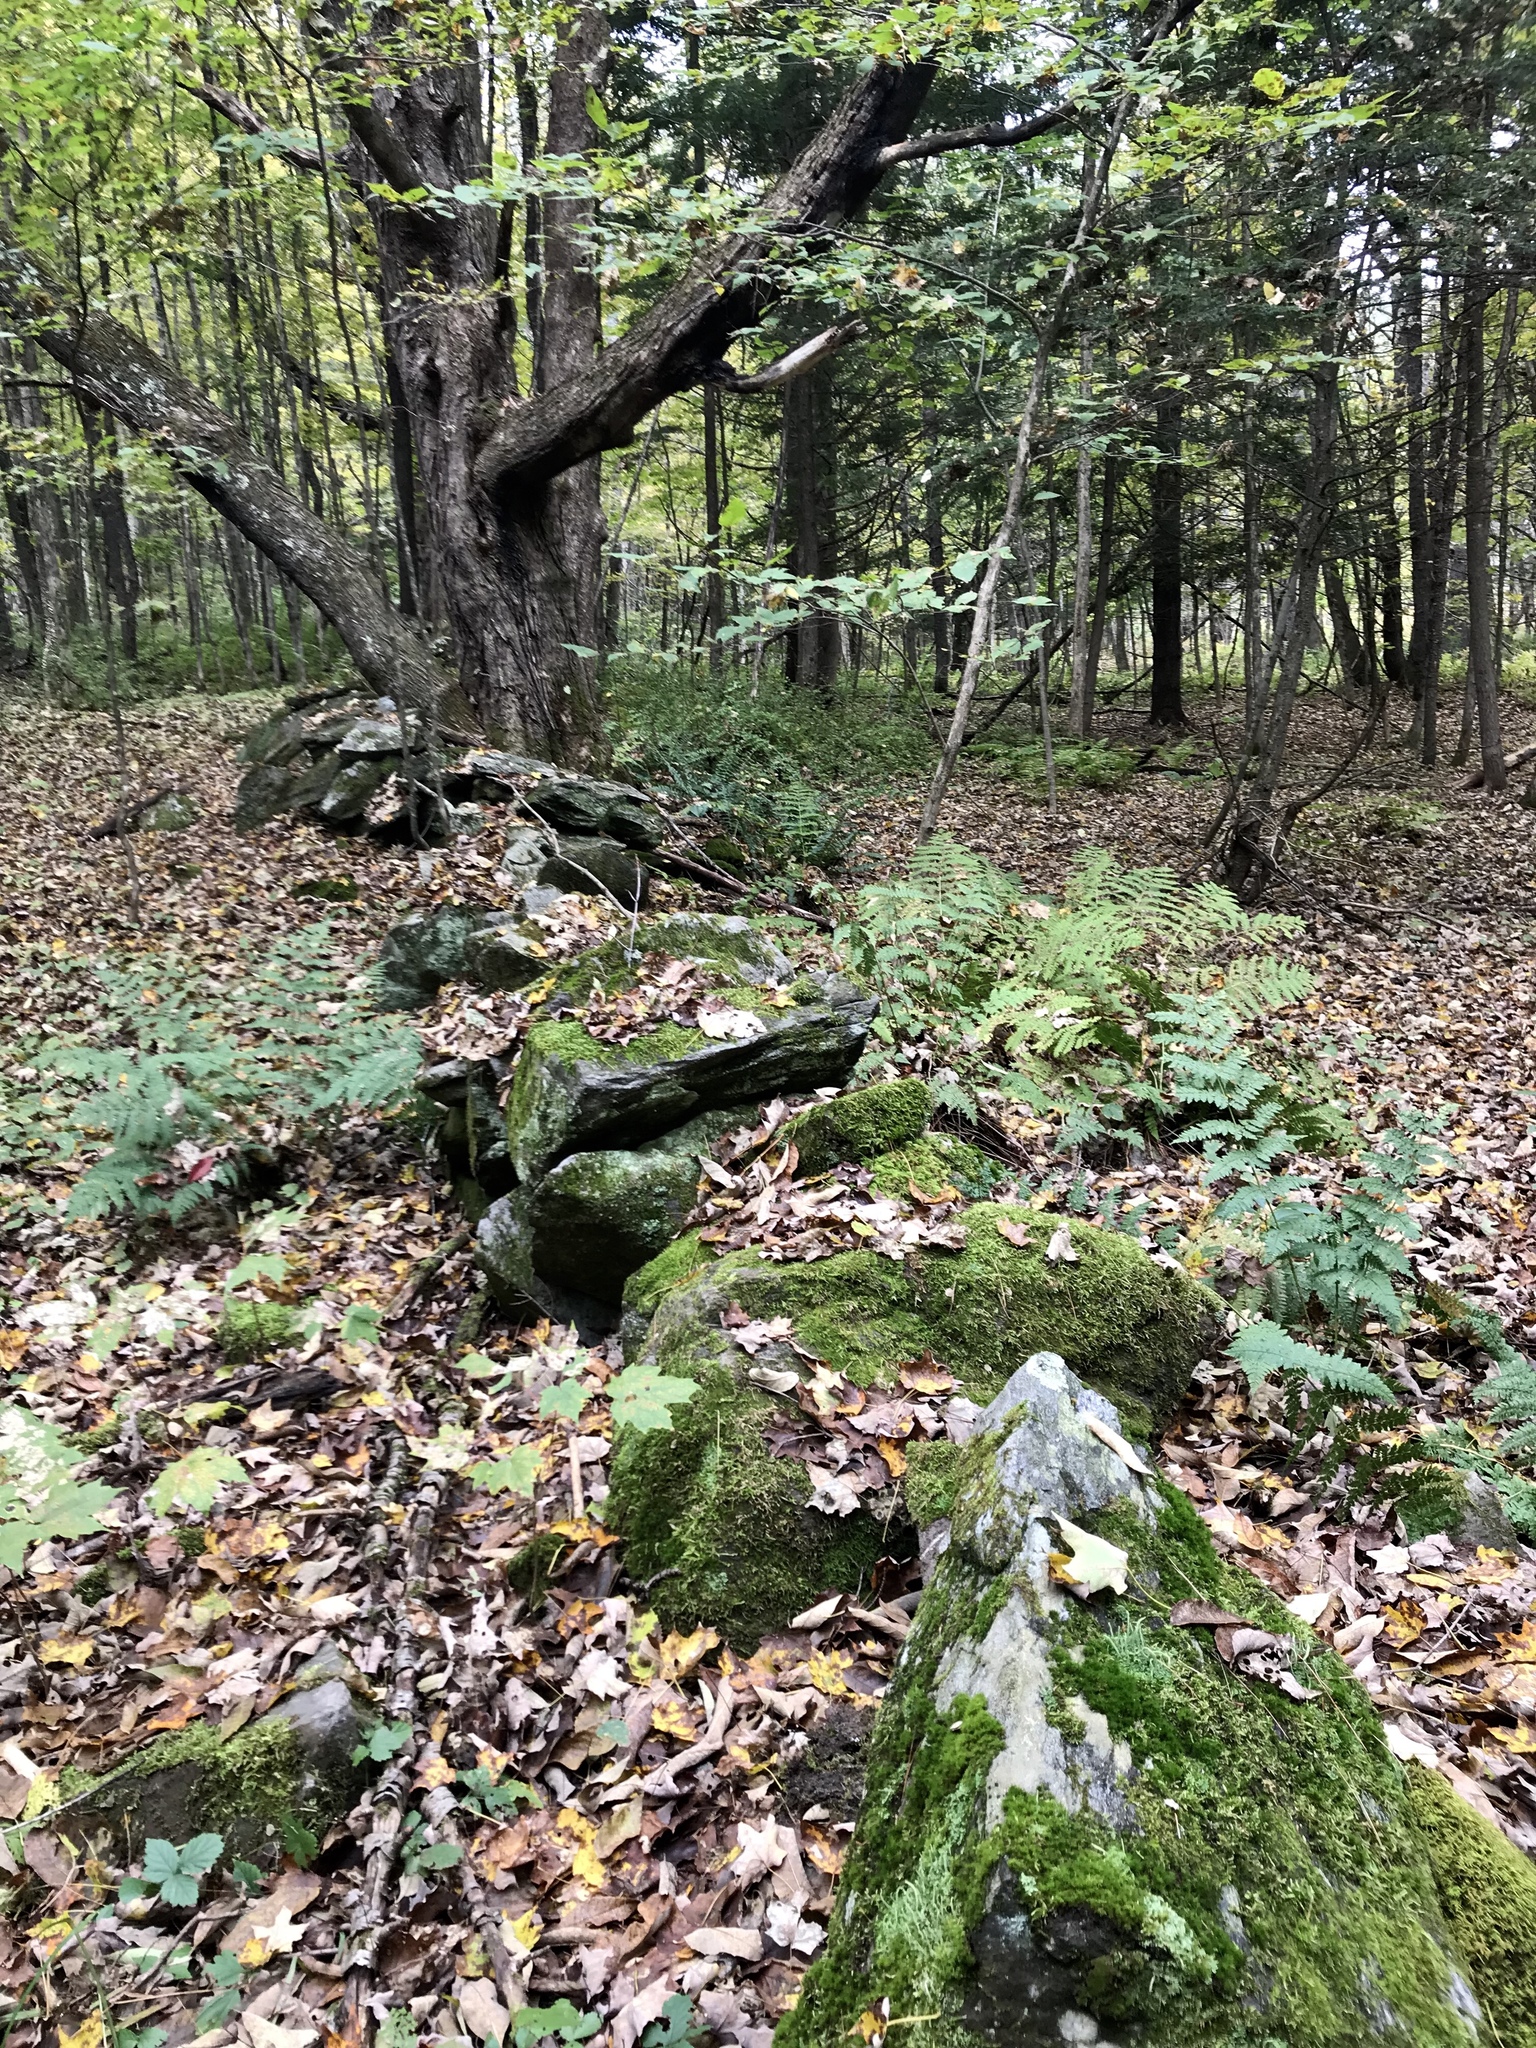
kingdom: Plantae
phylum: Tracheophyta
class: Magnoliopsida
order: Sapindales
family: Sapindaceae
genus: Acer
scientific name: Acer saccharum
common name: Sugar maple
